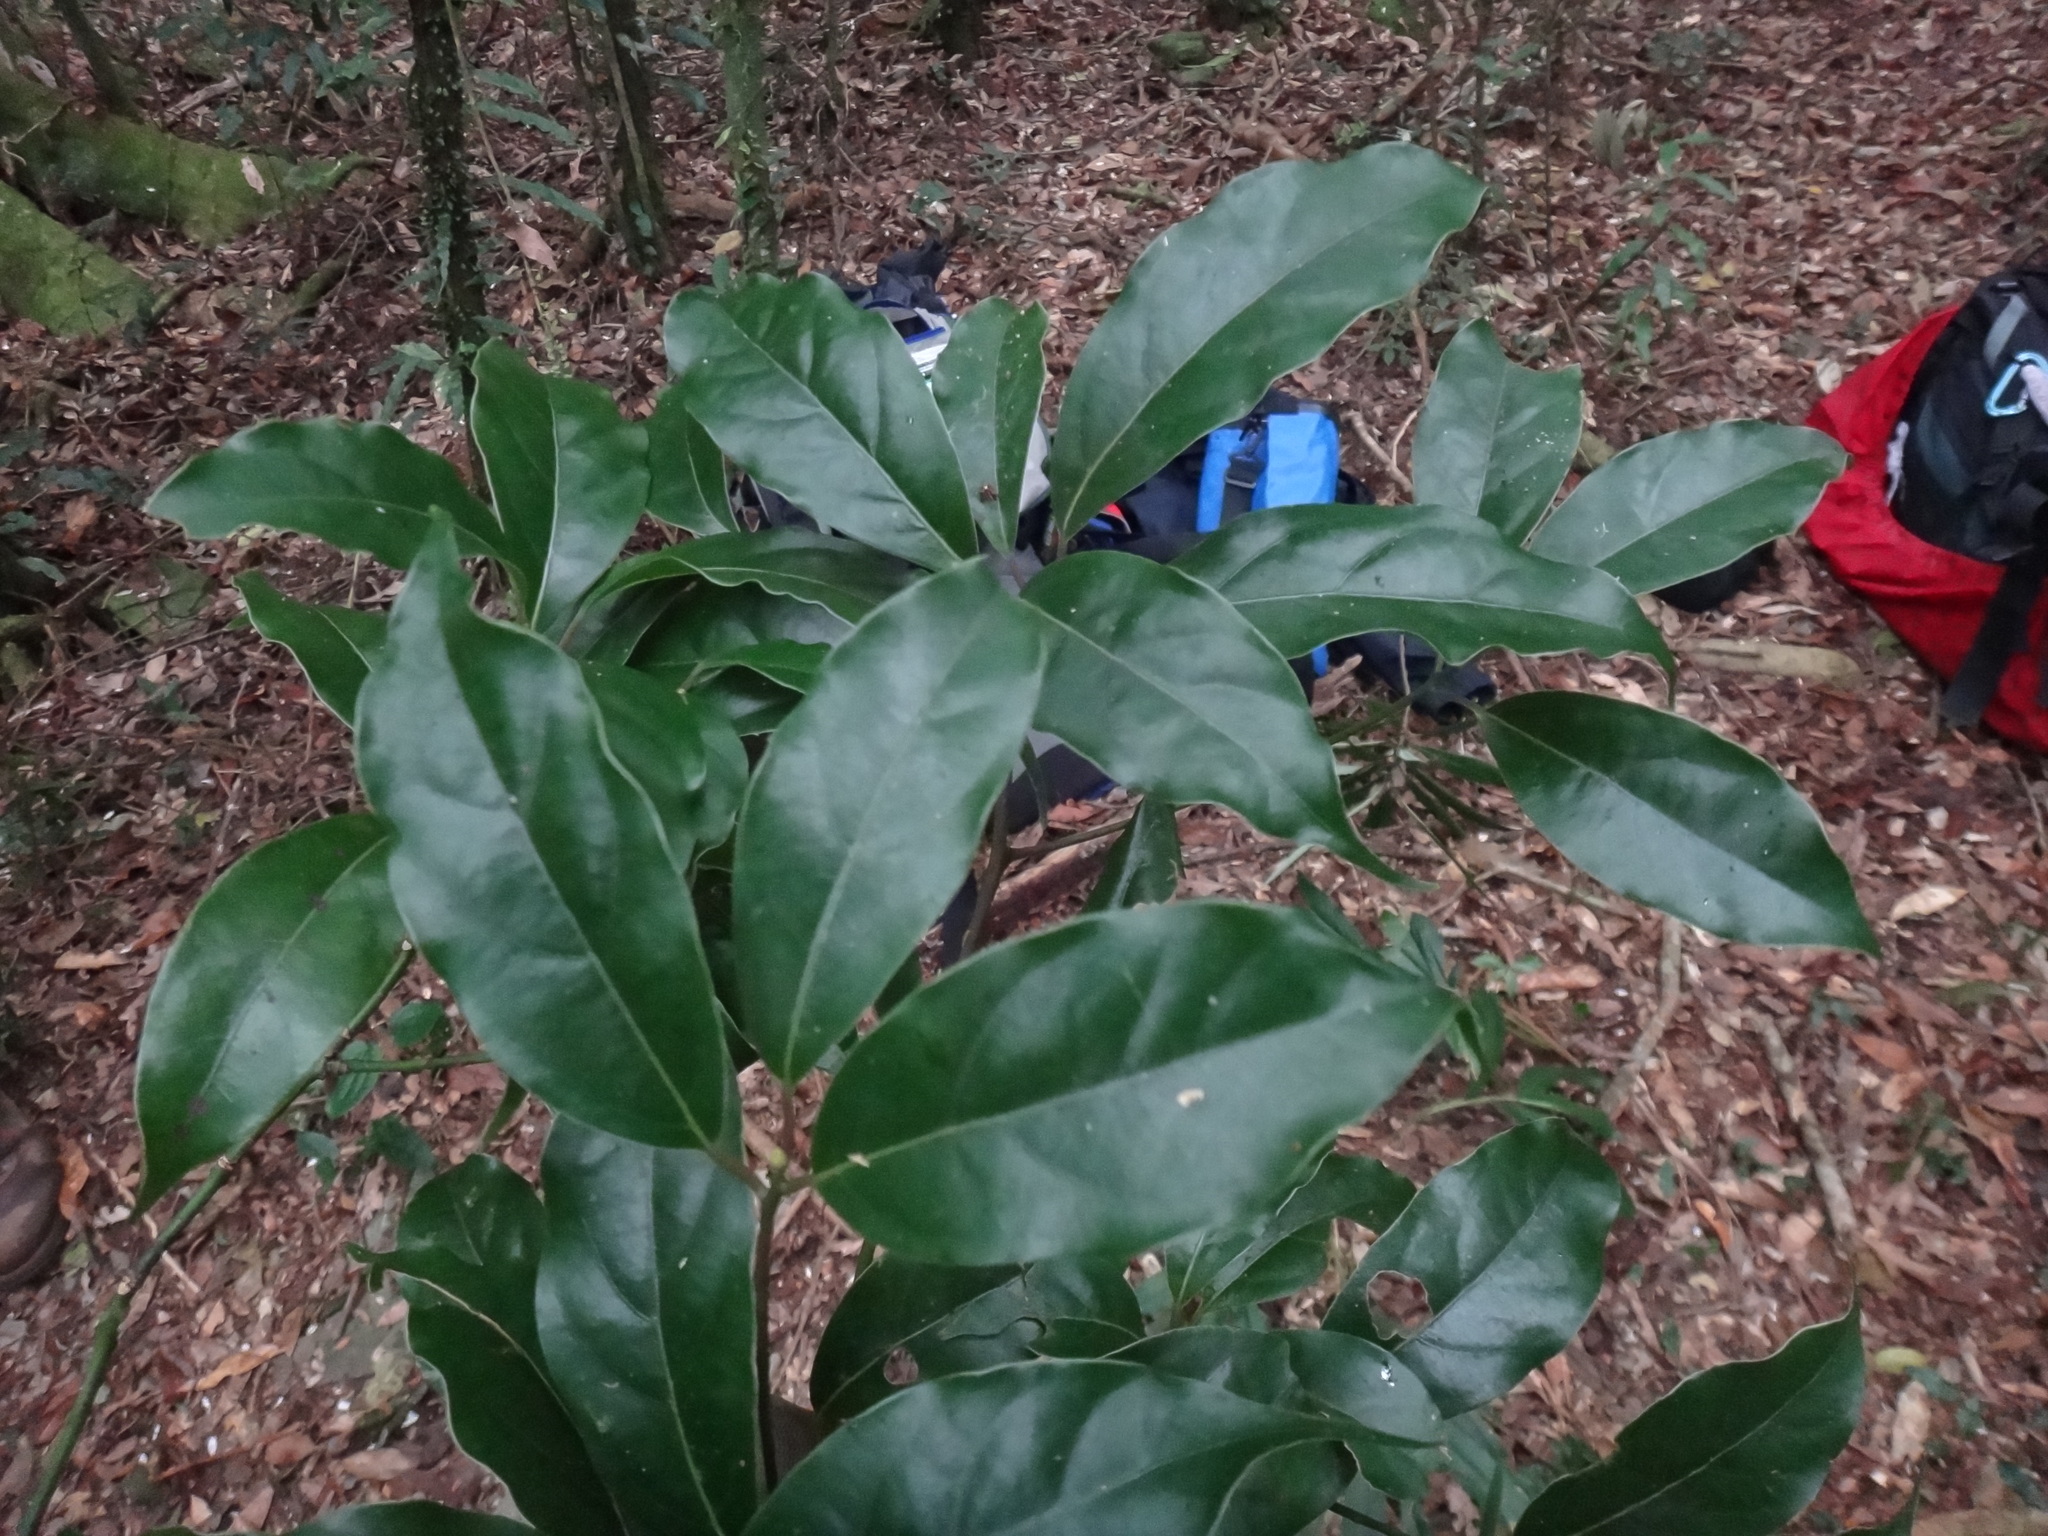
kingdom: Plantae
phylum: Tracheophyta
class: Magnoliopsida
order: Laurales
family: Lauraceae
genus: Cinnamomum
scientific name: Cinnamomum micranthum
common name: Chinese-sassafras
